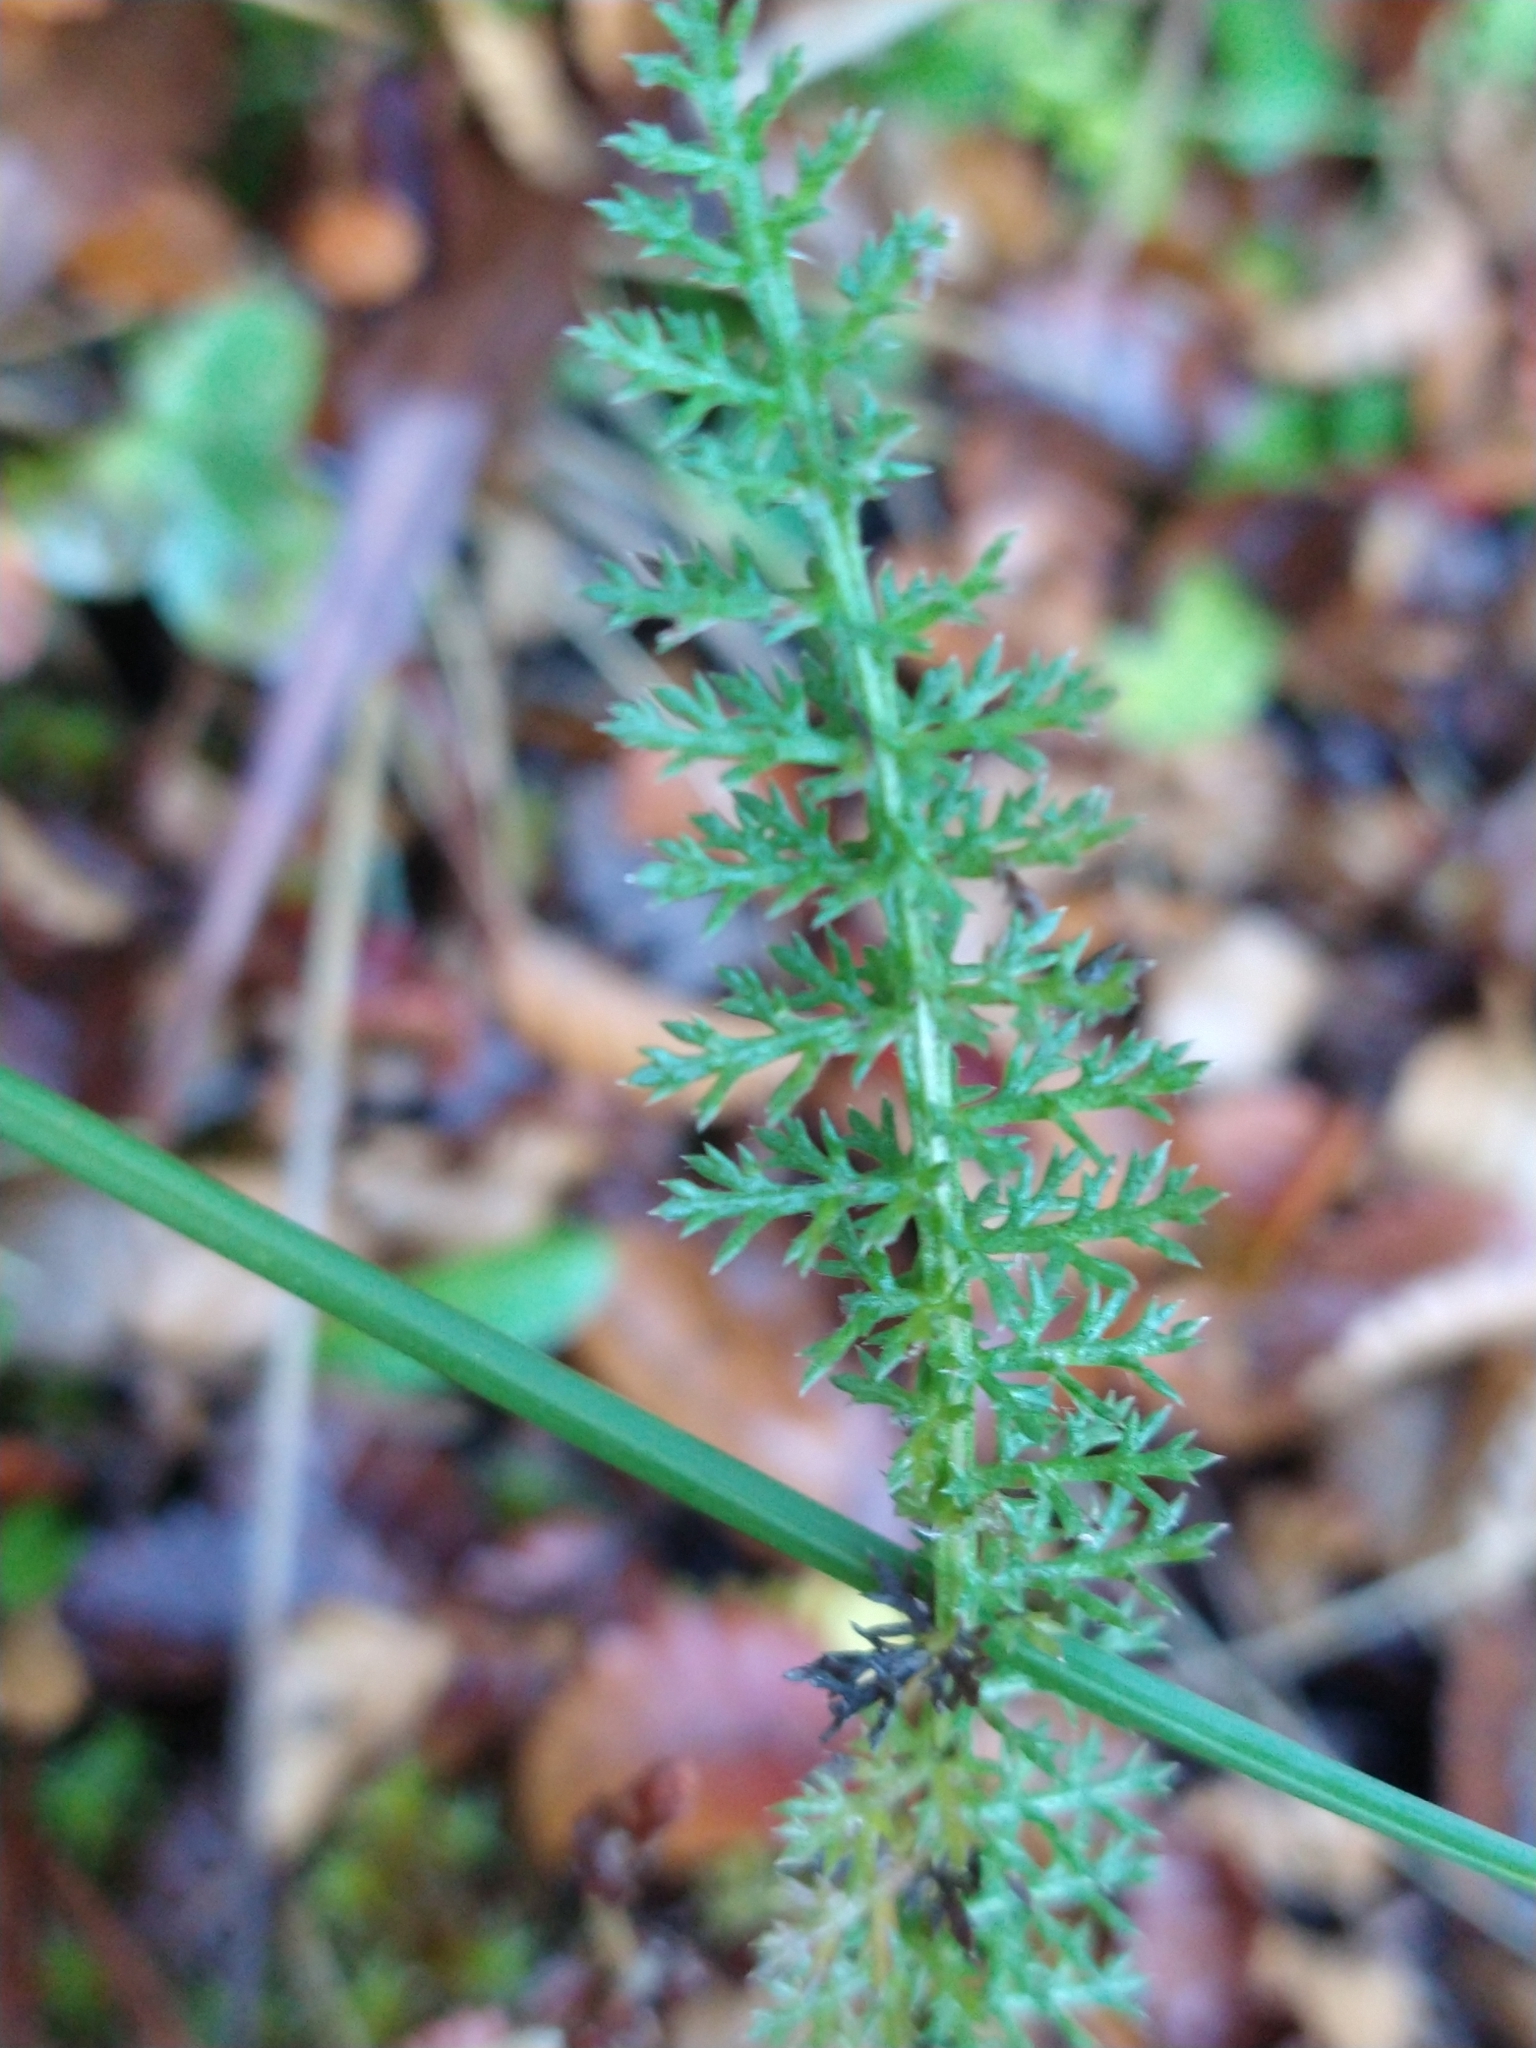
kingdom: Plantae
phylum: Tracheophyta
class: Magnoliopsida
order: Rosales
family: Rosaceae
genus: Acaena
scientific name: Acaena pinnatifida
